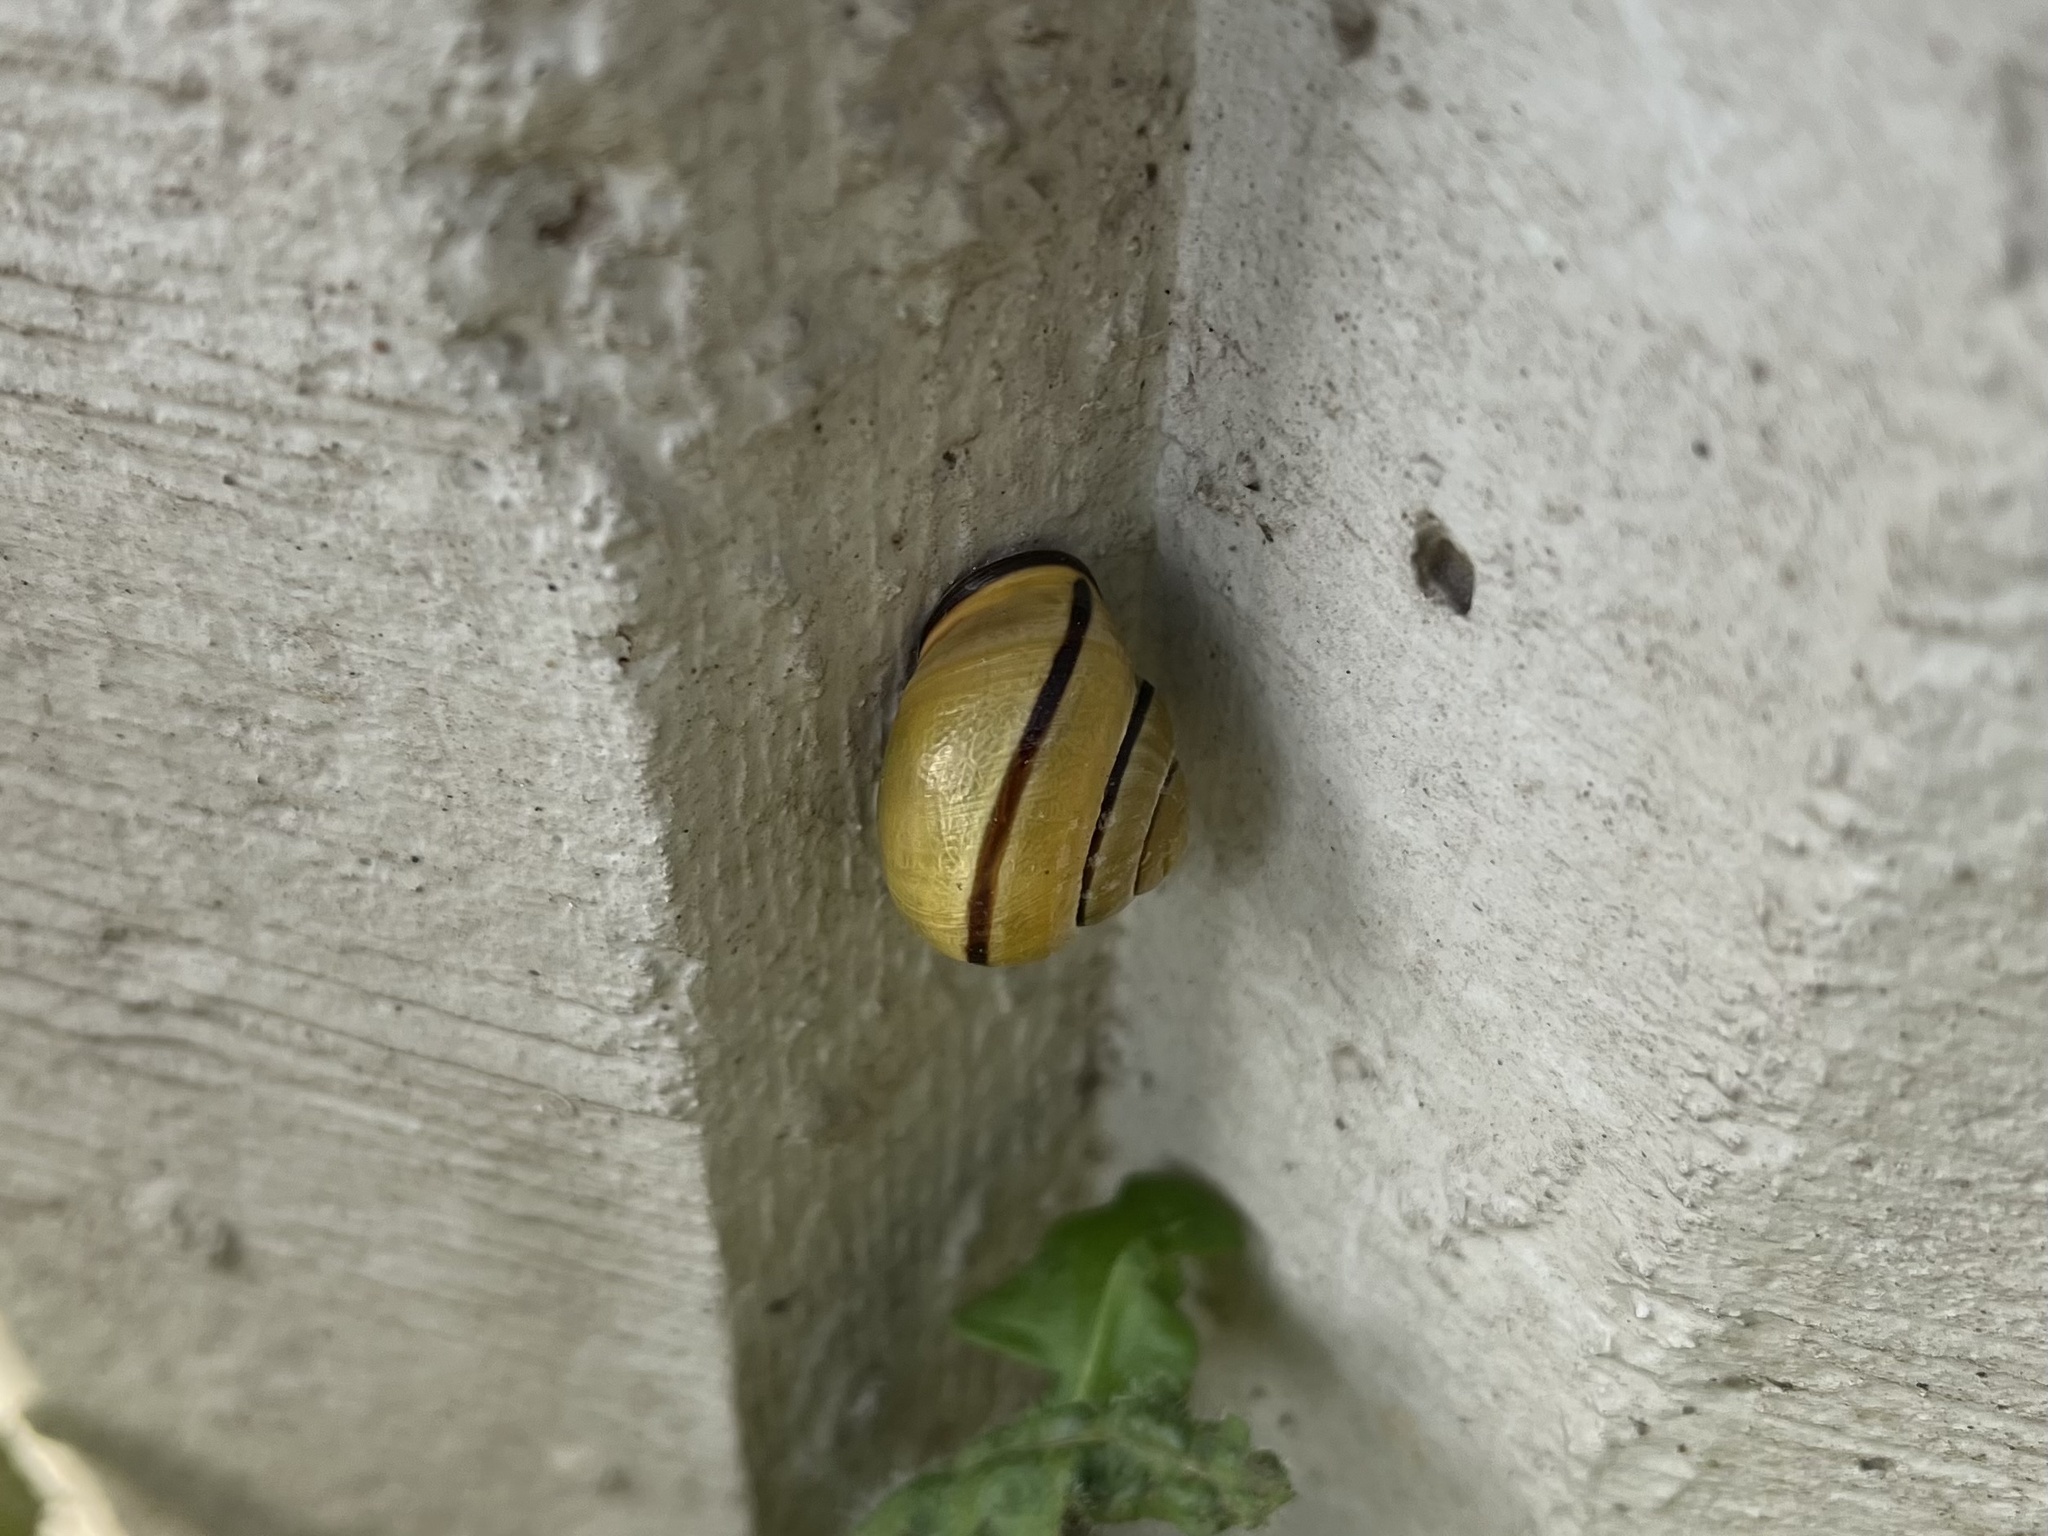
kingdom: Animalia
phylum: Mollusca
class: Gastropoda
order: Stylommatophora
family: Helicidae
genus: Cepaea
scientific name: Cepaea nemoralis
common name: Grovesnail
